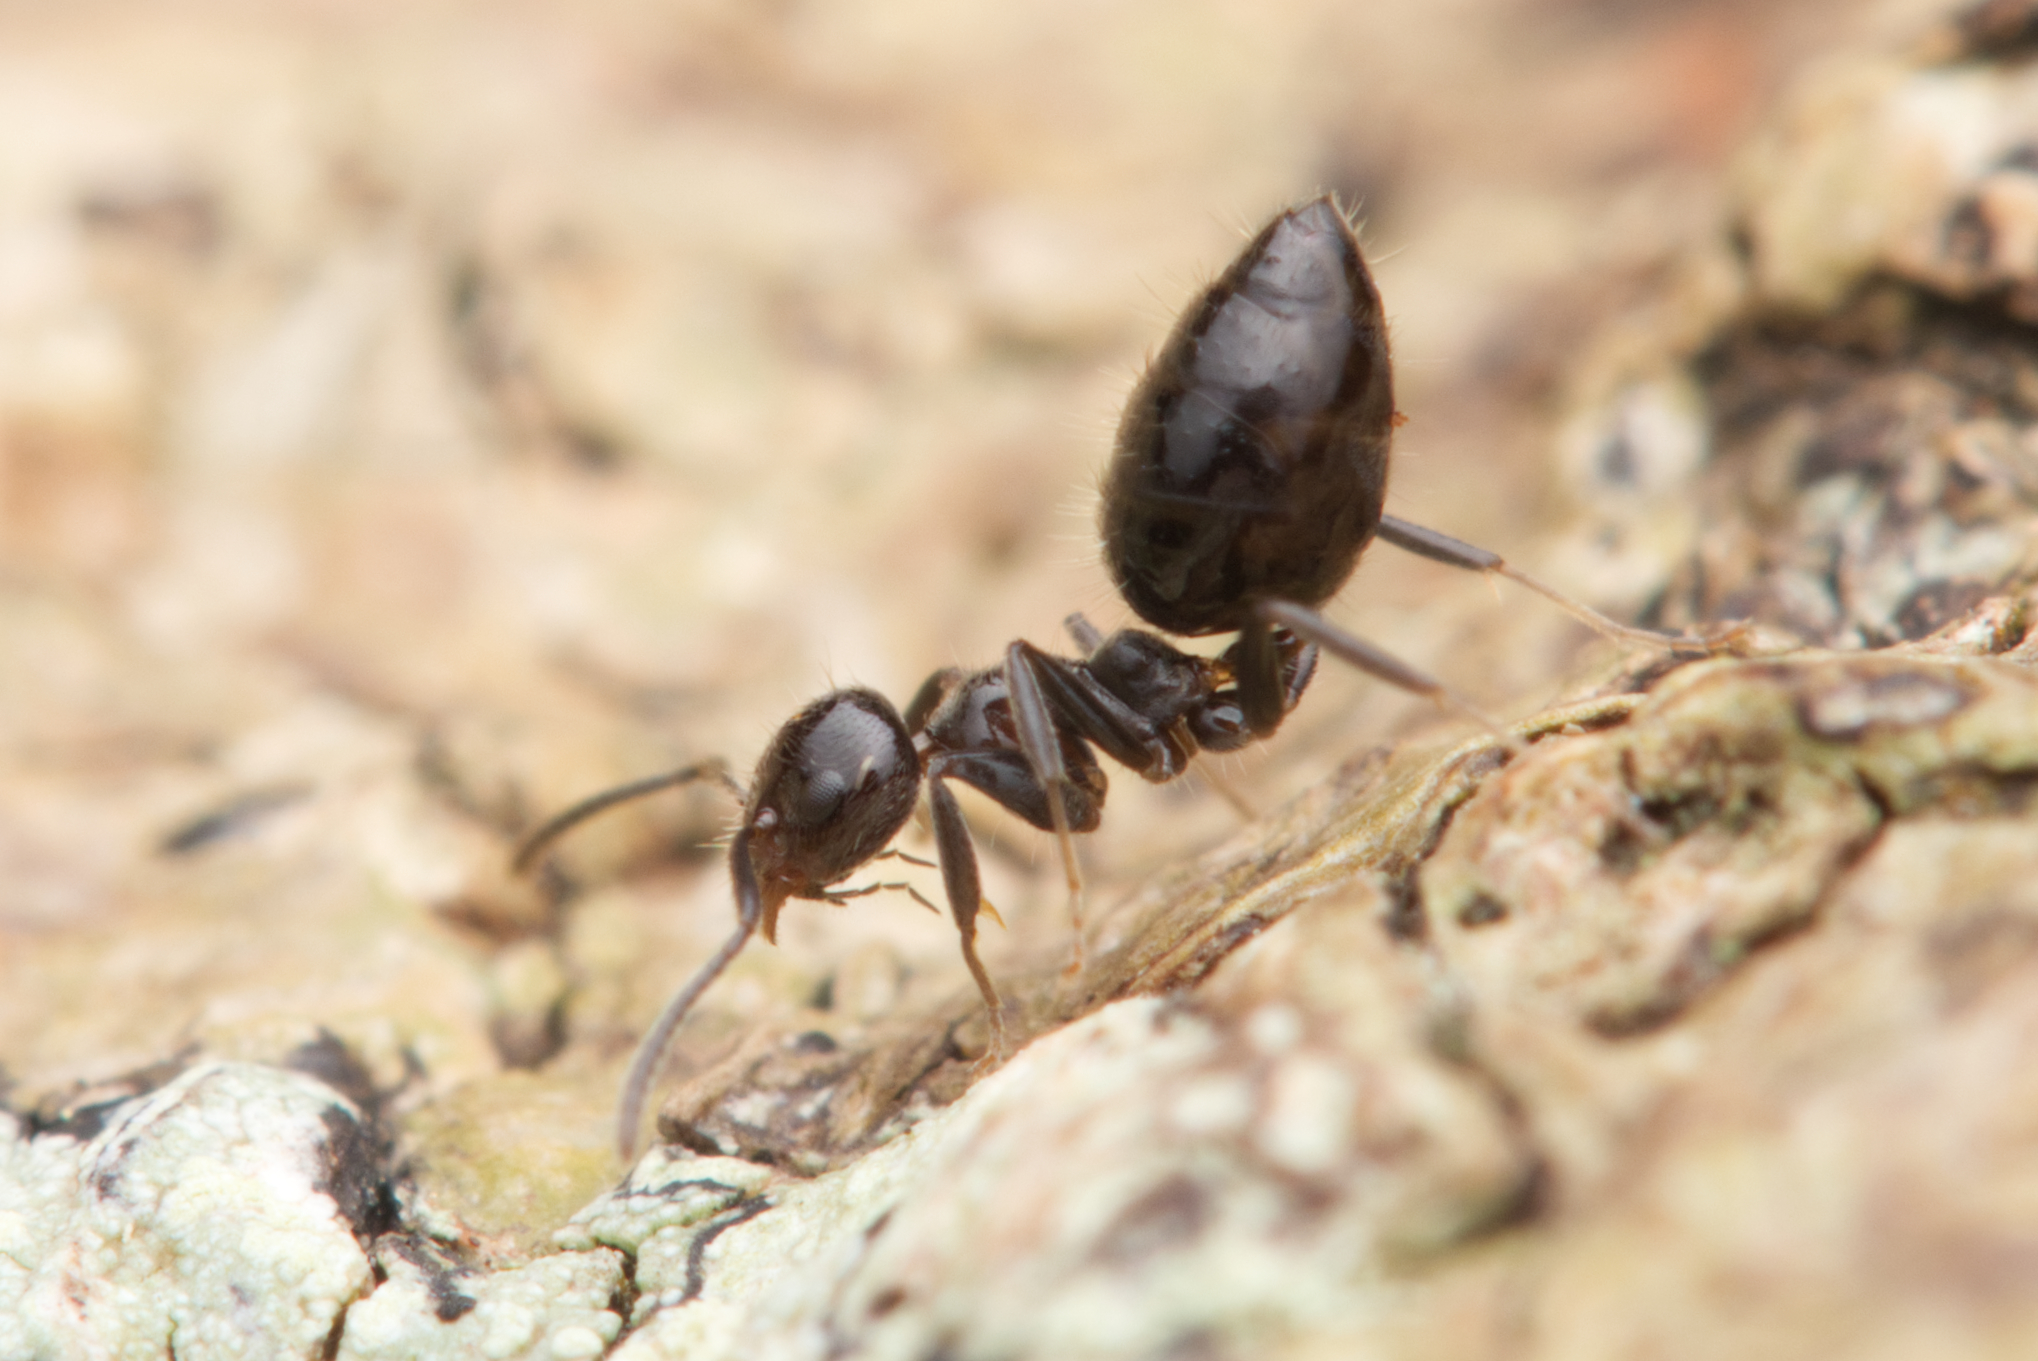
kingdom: Animalia
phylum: Arthropoda
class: Insecta
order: Hymenoptera
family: Formicidae
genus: Technomyrmex
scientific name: Technomyrmex sophiae
